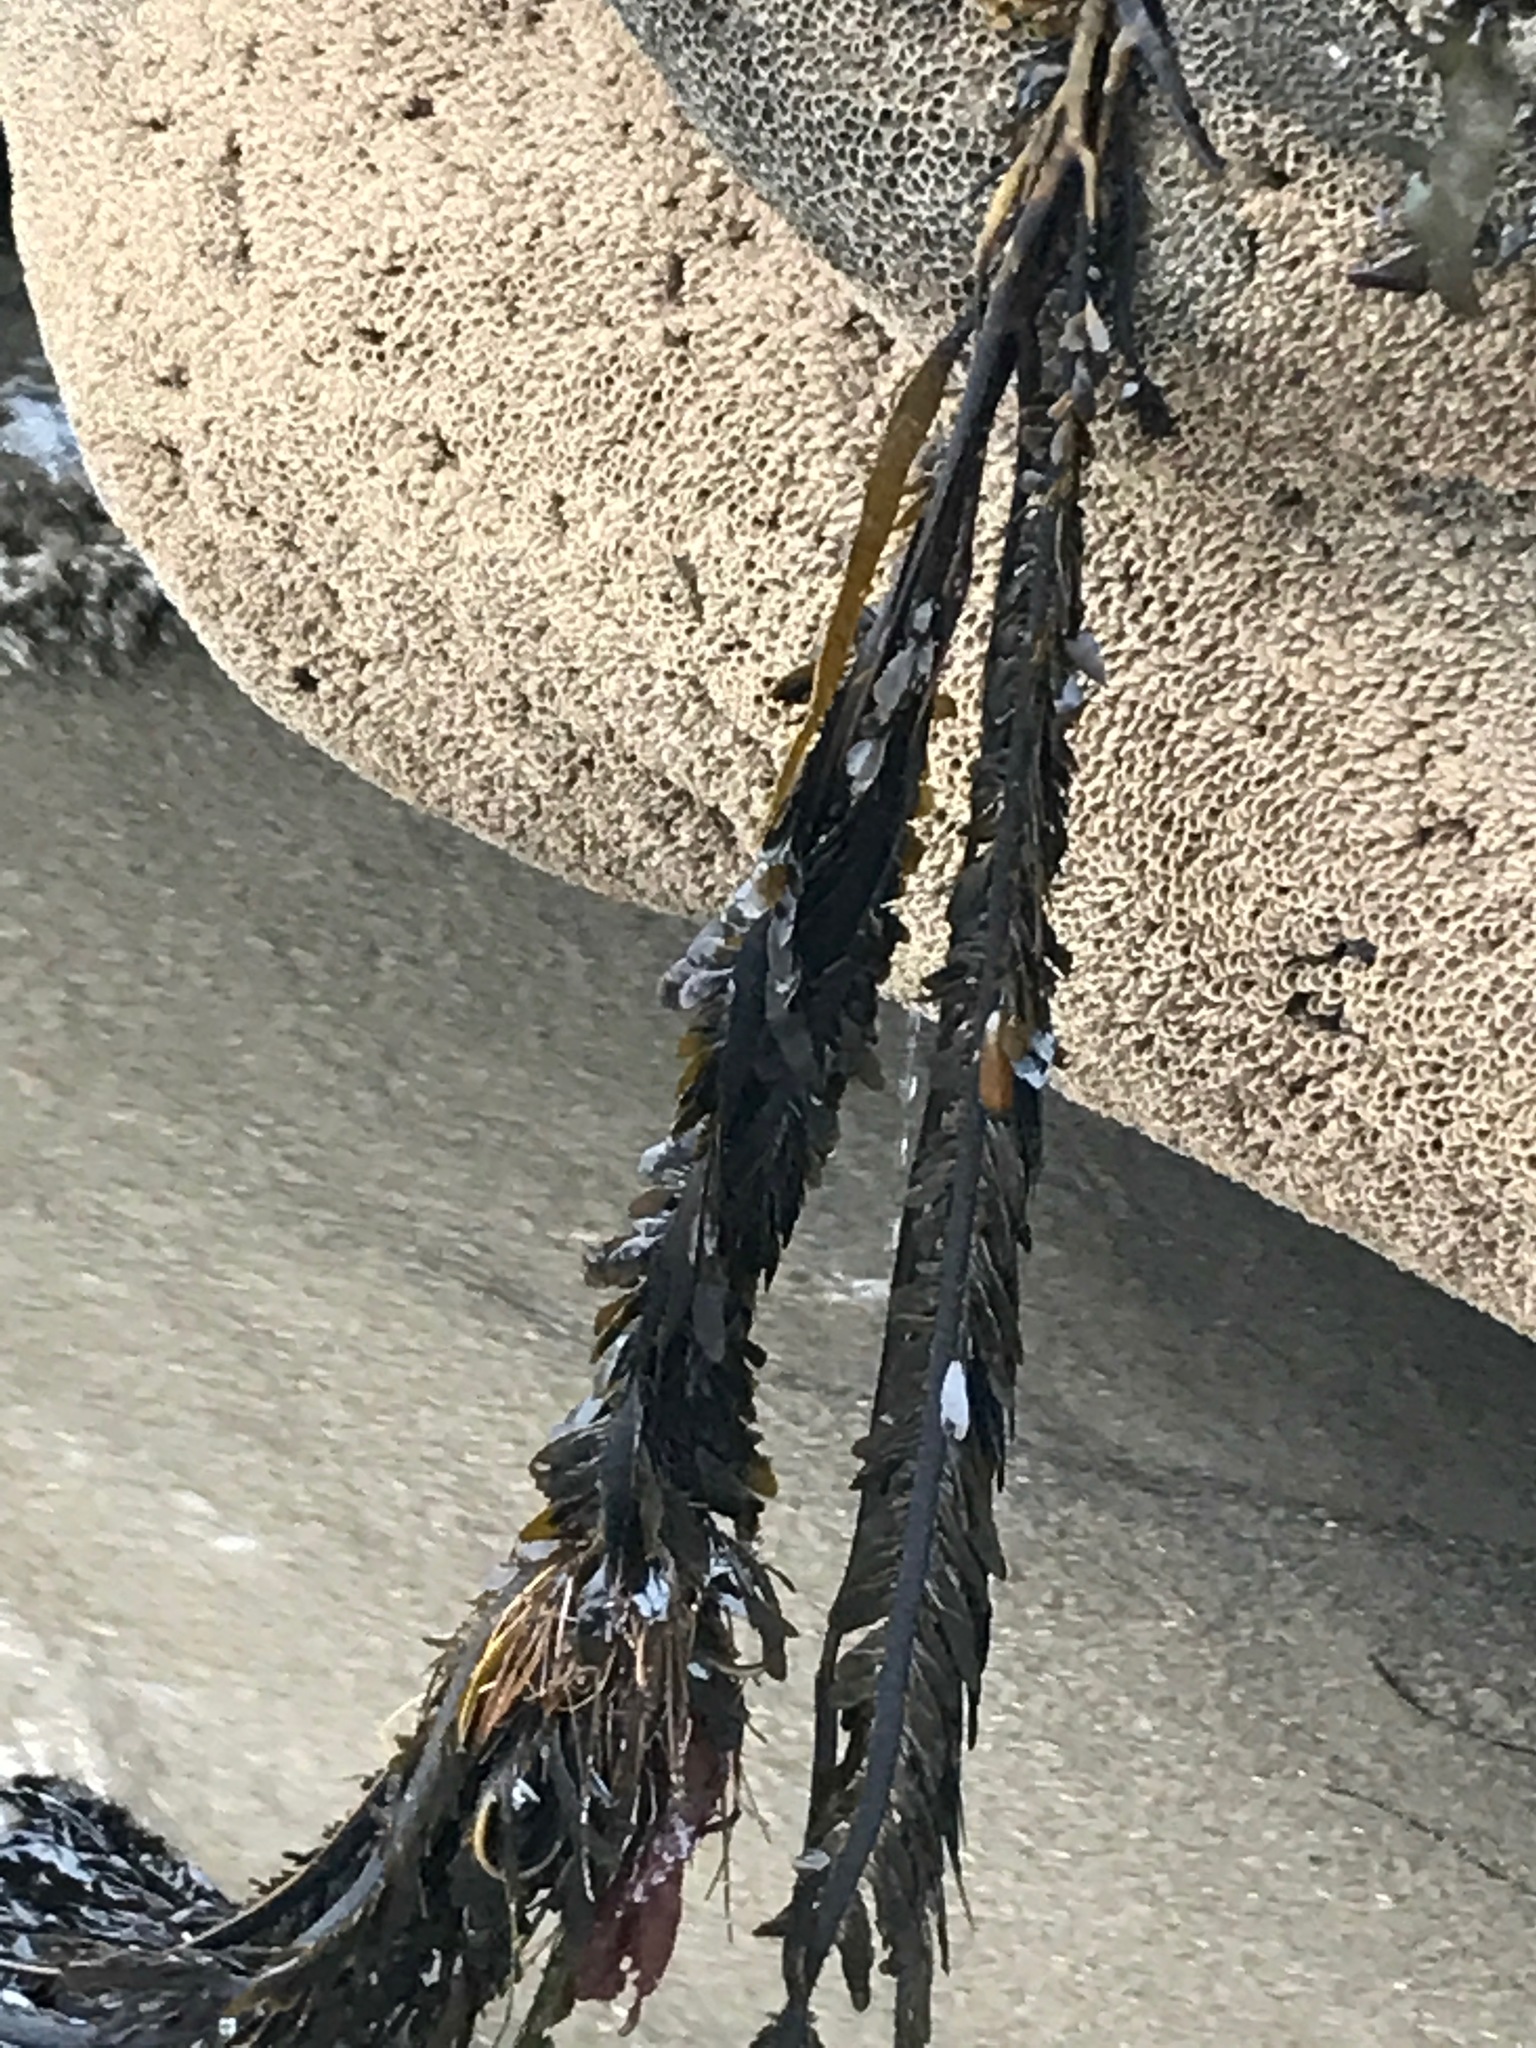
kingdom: Chromista
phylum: Ochrophyta
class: Phaeophyceae
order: Laminariales
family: Lessoniaceae
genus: Egregia
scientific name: Egregia menziesii
